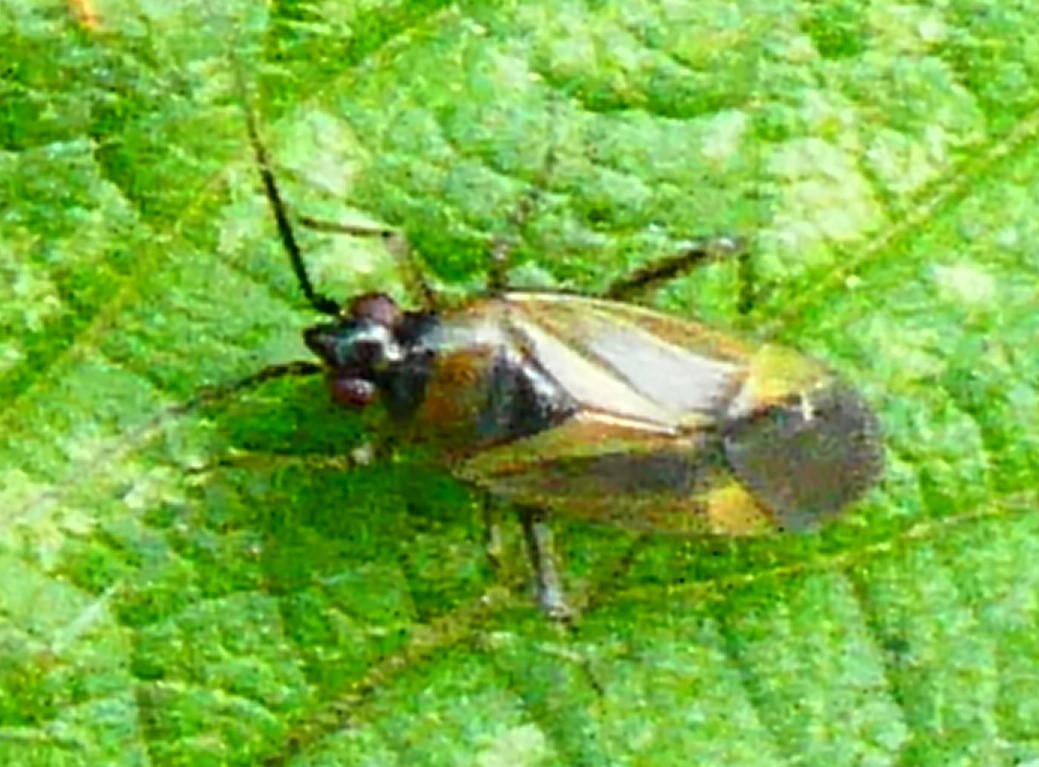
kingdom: Animalia
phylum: Arthropoda
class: Insecta
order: Hemiptera
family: Miridae
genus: Plagiognathus
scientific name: Plagiognathus arbustorum
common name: Plant bug
